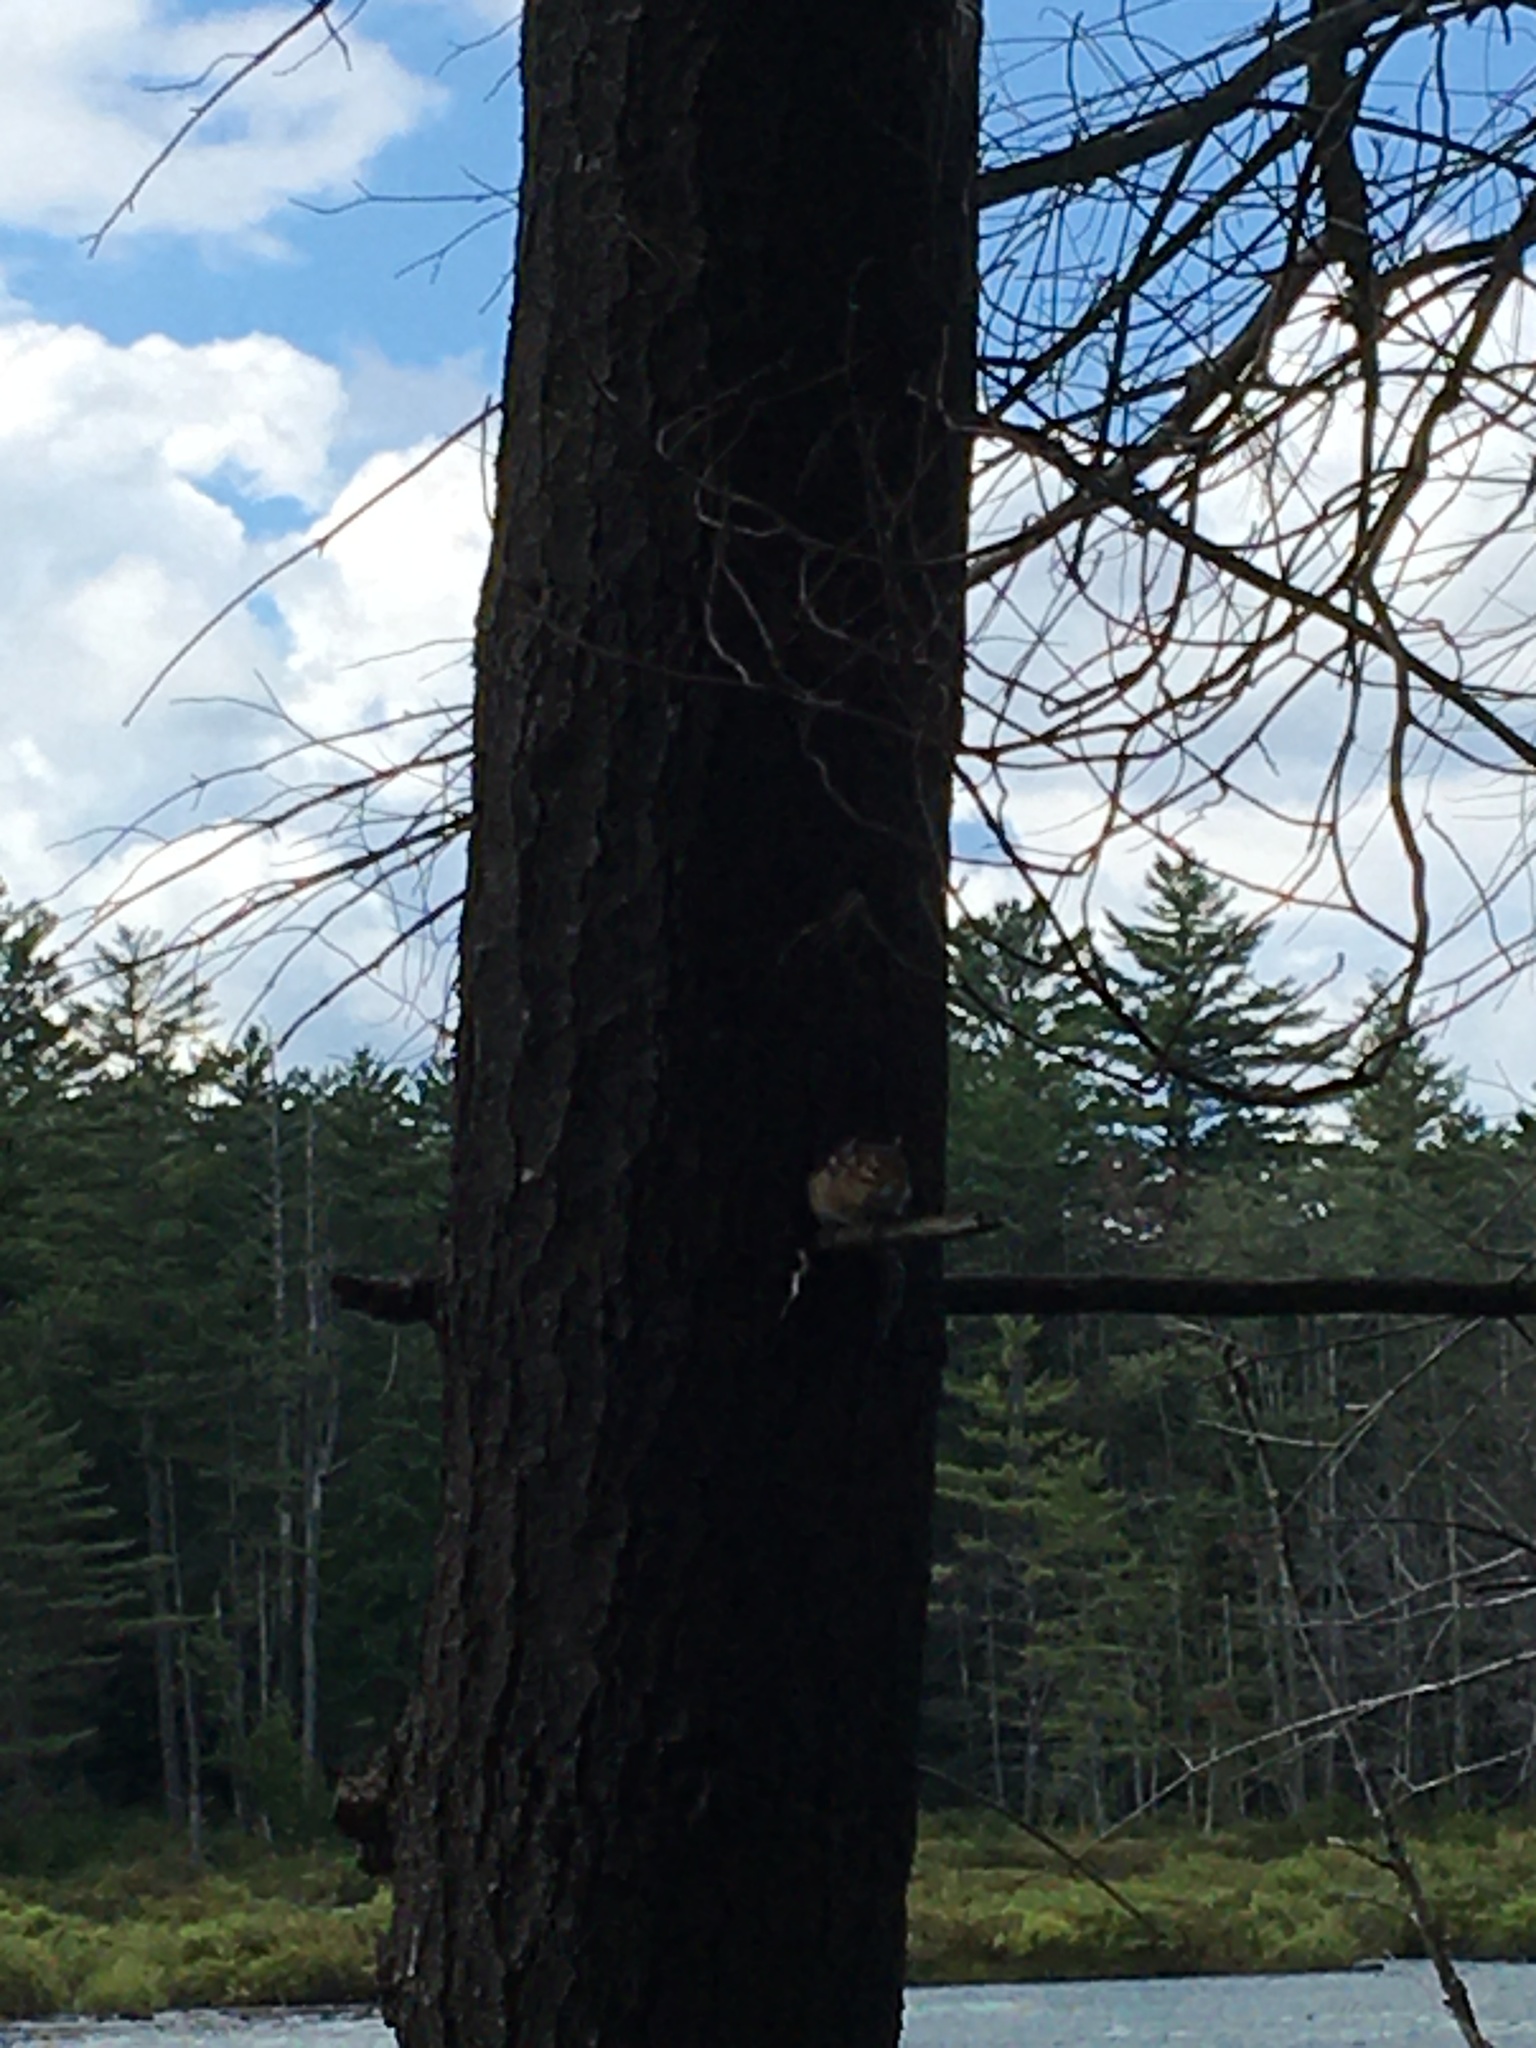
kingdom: Animalia
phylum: Chordata
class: Mammalia
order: Rodentia
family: Sciuridae
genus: Tamias
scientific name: Tamias striatus
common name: Eastern chipmunk
